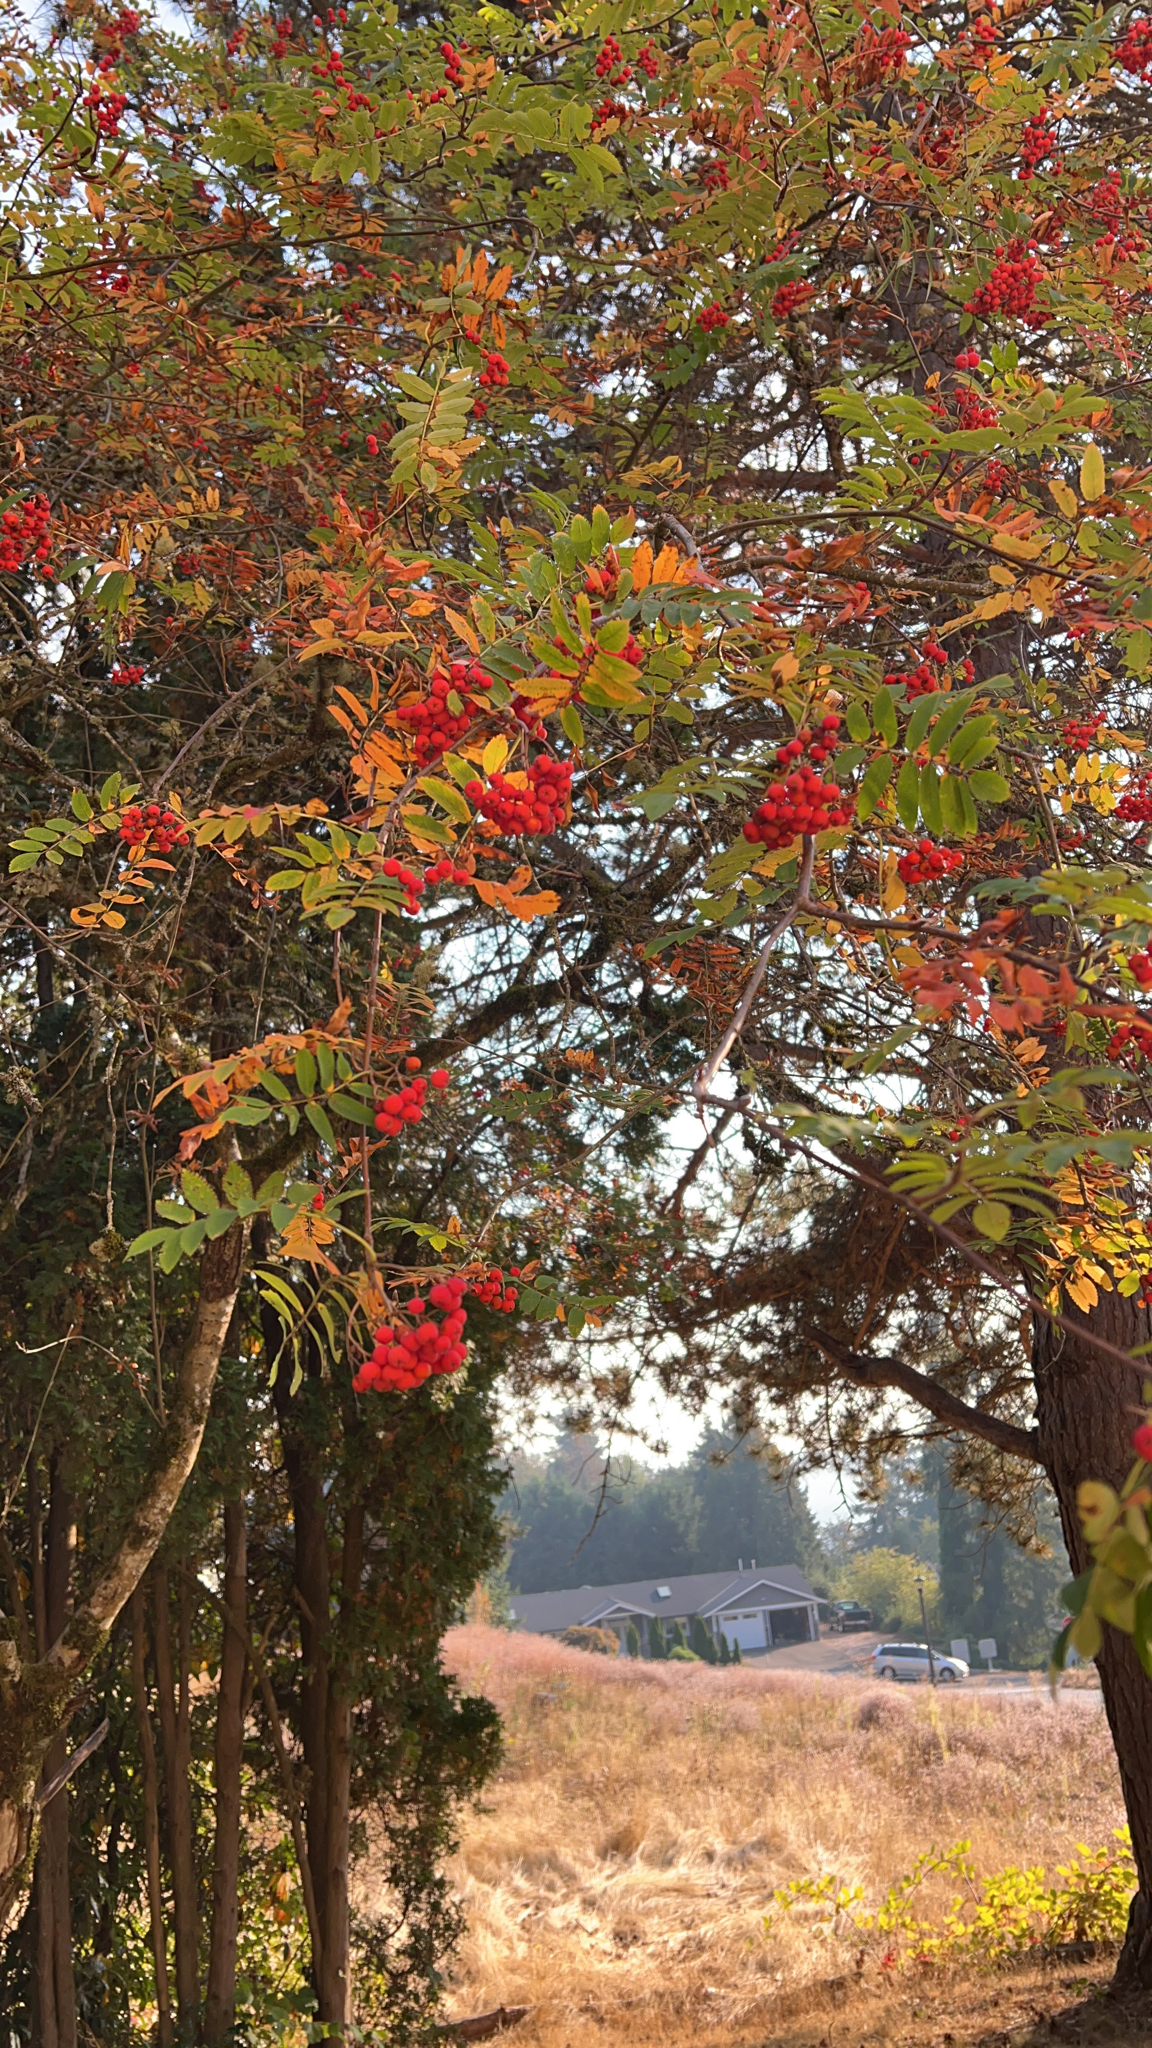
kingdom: Plantae
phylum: Tracheophyta
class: Magnoliopsida
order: Rosales
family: Rosaceae
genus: Sorbus
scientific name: Sorbus aucuparia
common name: Rowan
